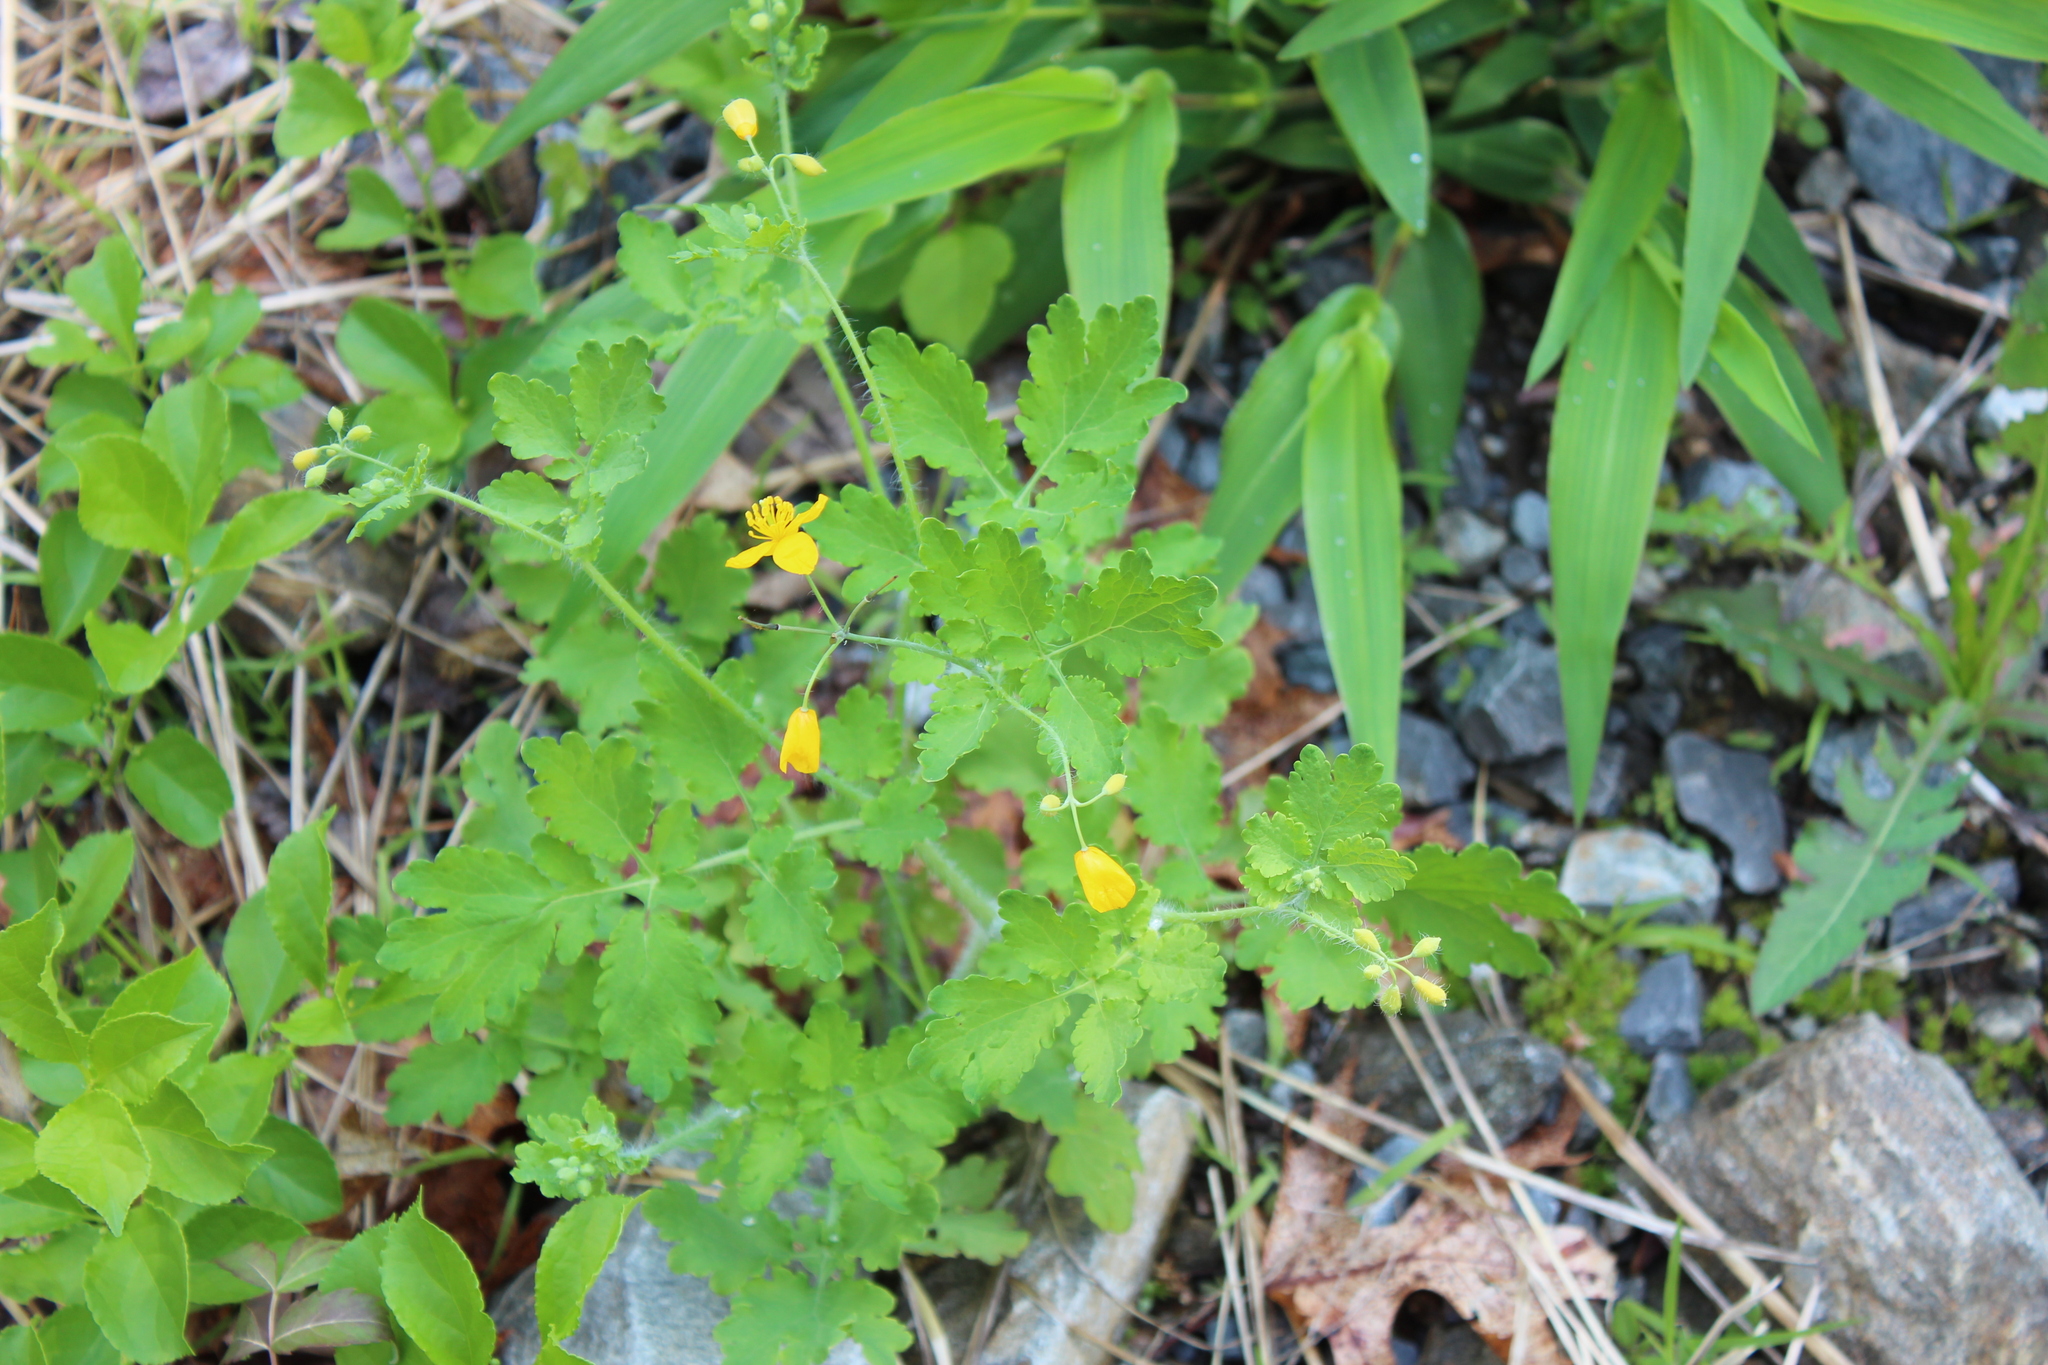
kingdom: Plantae
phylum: Tracheophyta
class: Magnoliopsida
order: Ranunculales
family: Papaveraceae
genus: Chelidonium
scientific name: Chelidonium majus
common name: Greater celandine
